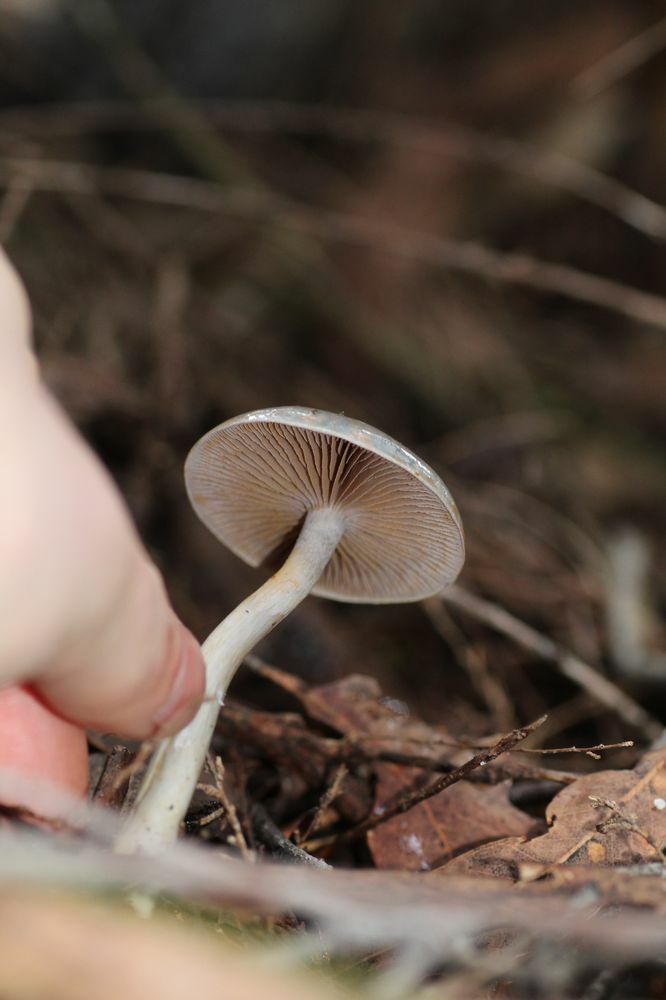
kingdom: Fungi
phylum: Basidiomycota
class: Agaricomycetes
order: Agaricales
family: Cortinariaceae
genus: Cortinarius
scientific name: Cortinarius rotundisporus
